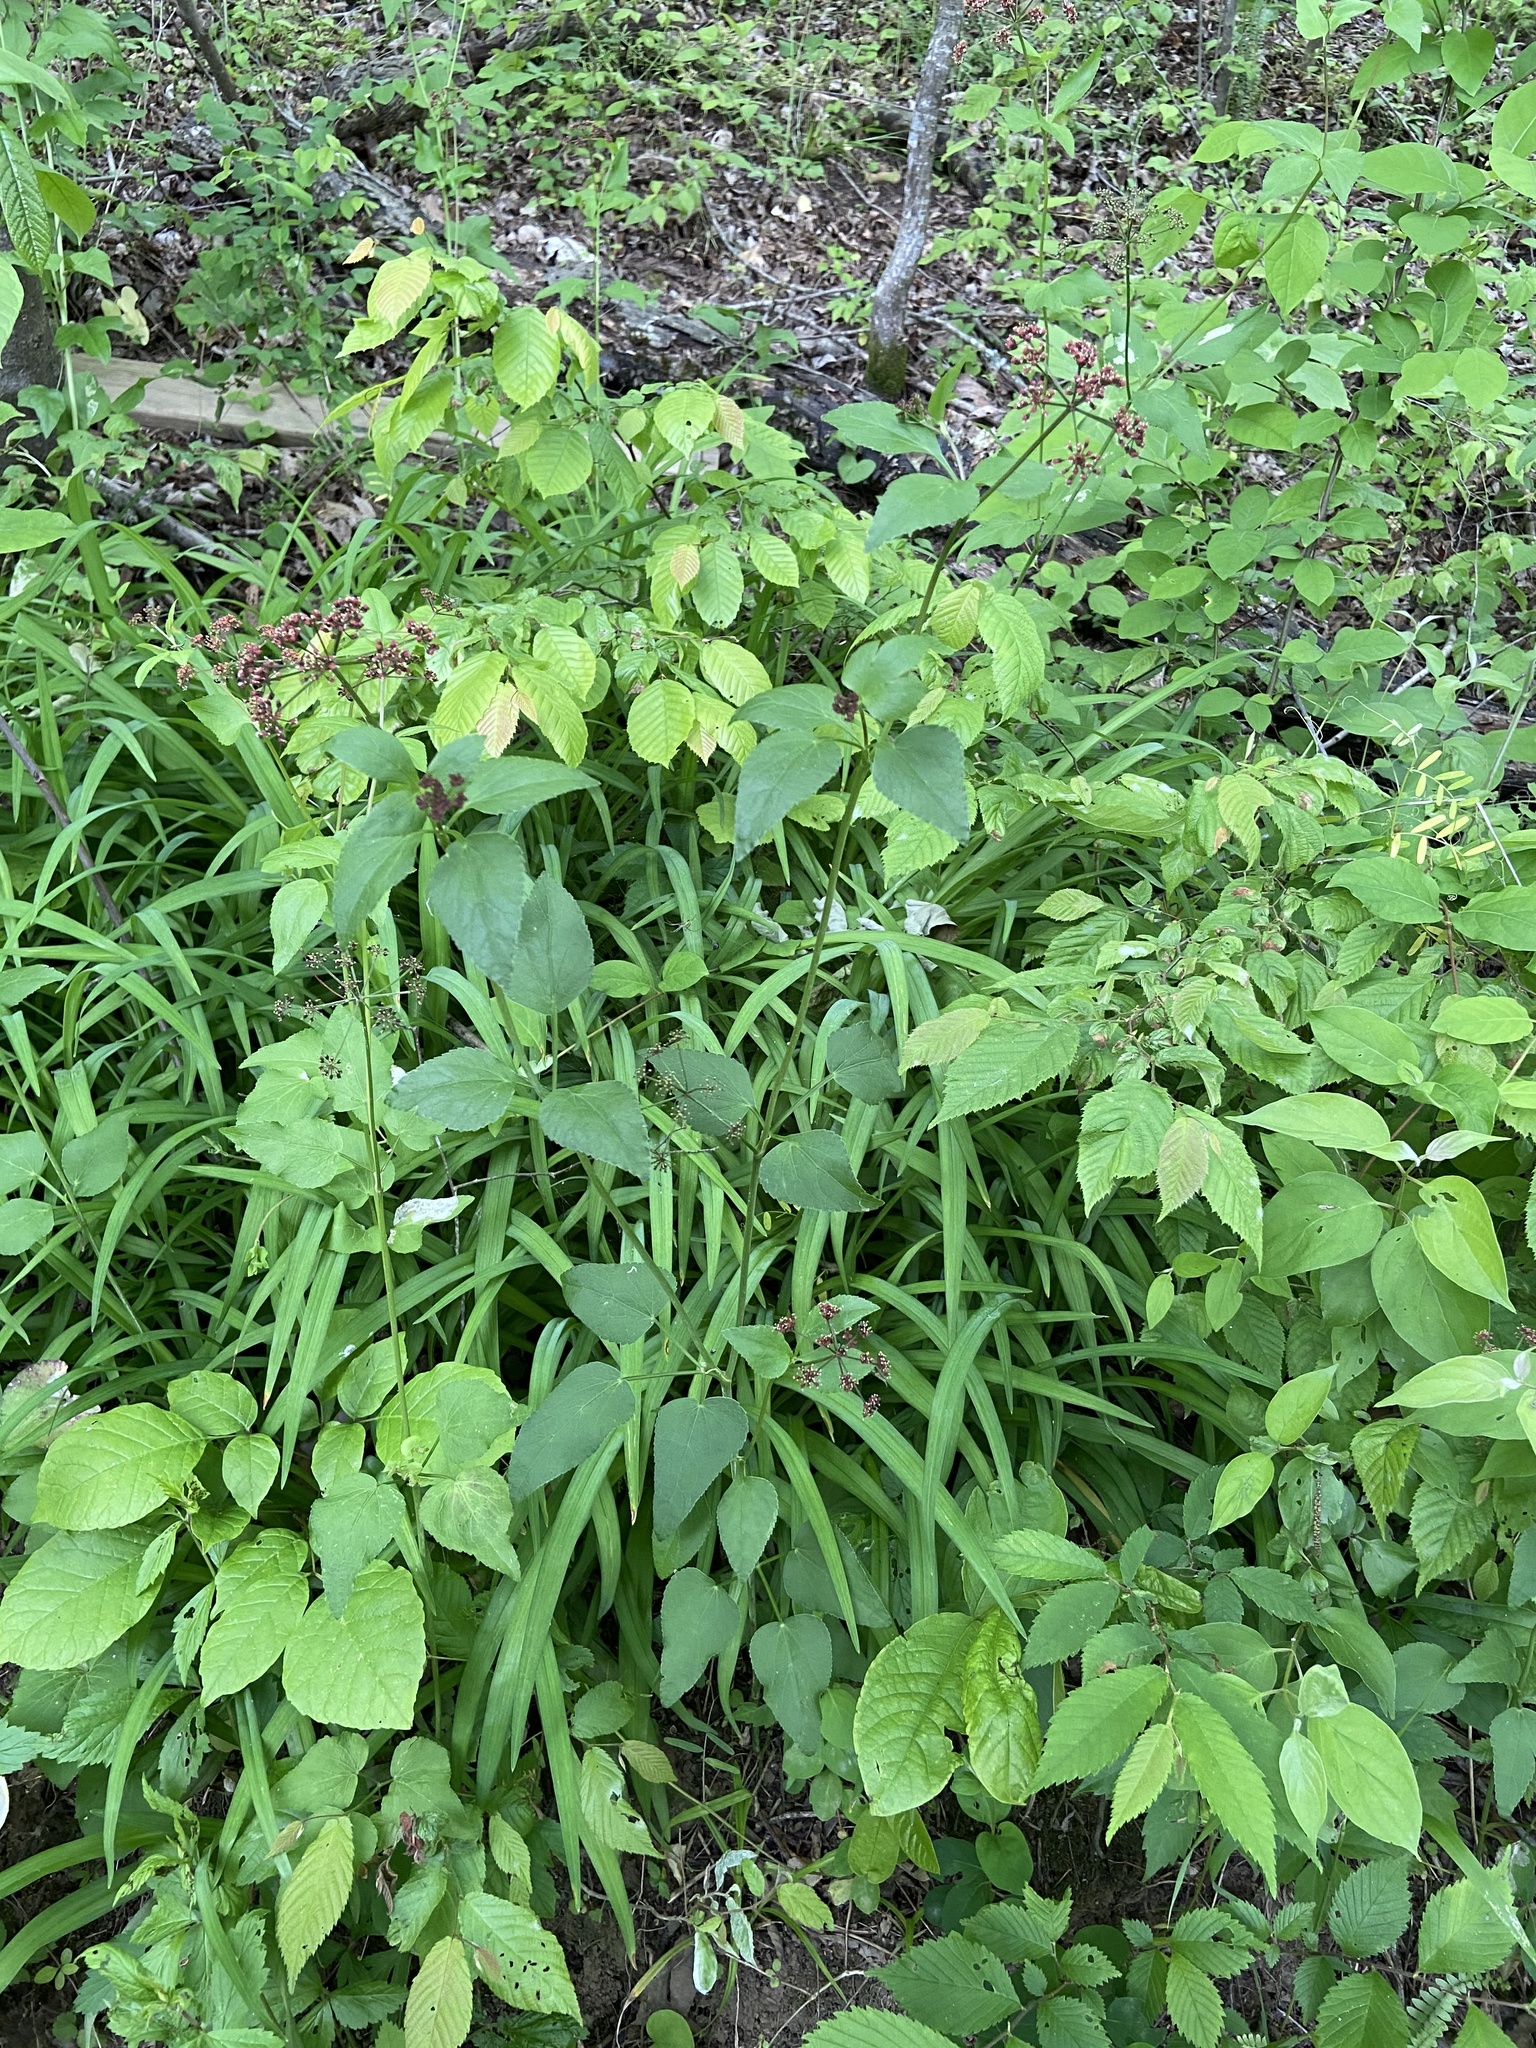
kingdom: Plantae
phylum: Tracheophyta
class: Magnoliopsida
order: Apiales
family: Apiaceae
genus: Thaspium
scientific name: Thaspium trifoliatum
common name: Purple meadow-parsnip
